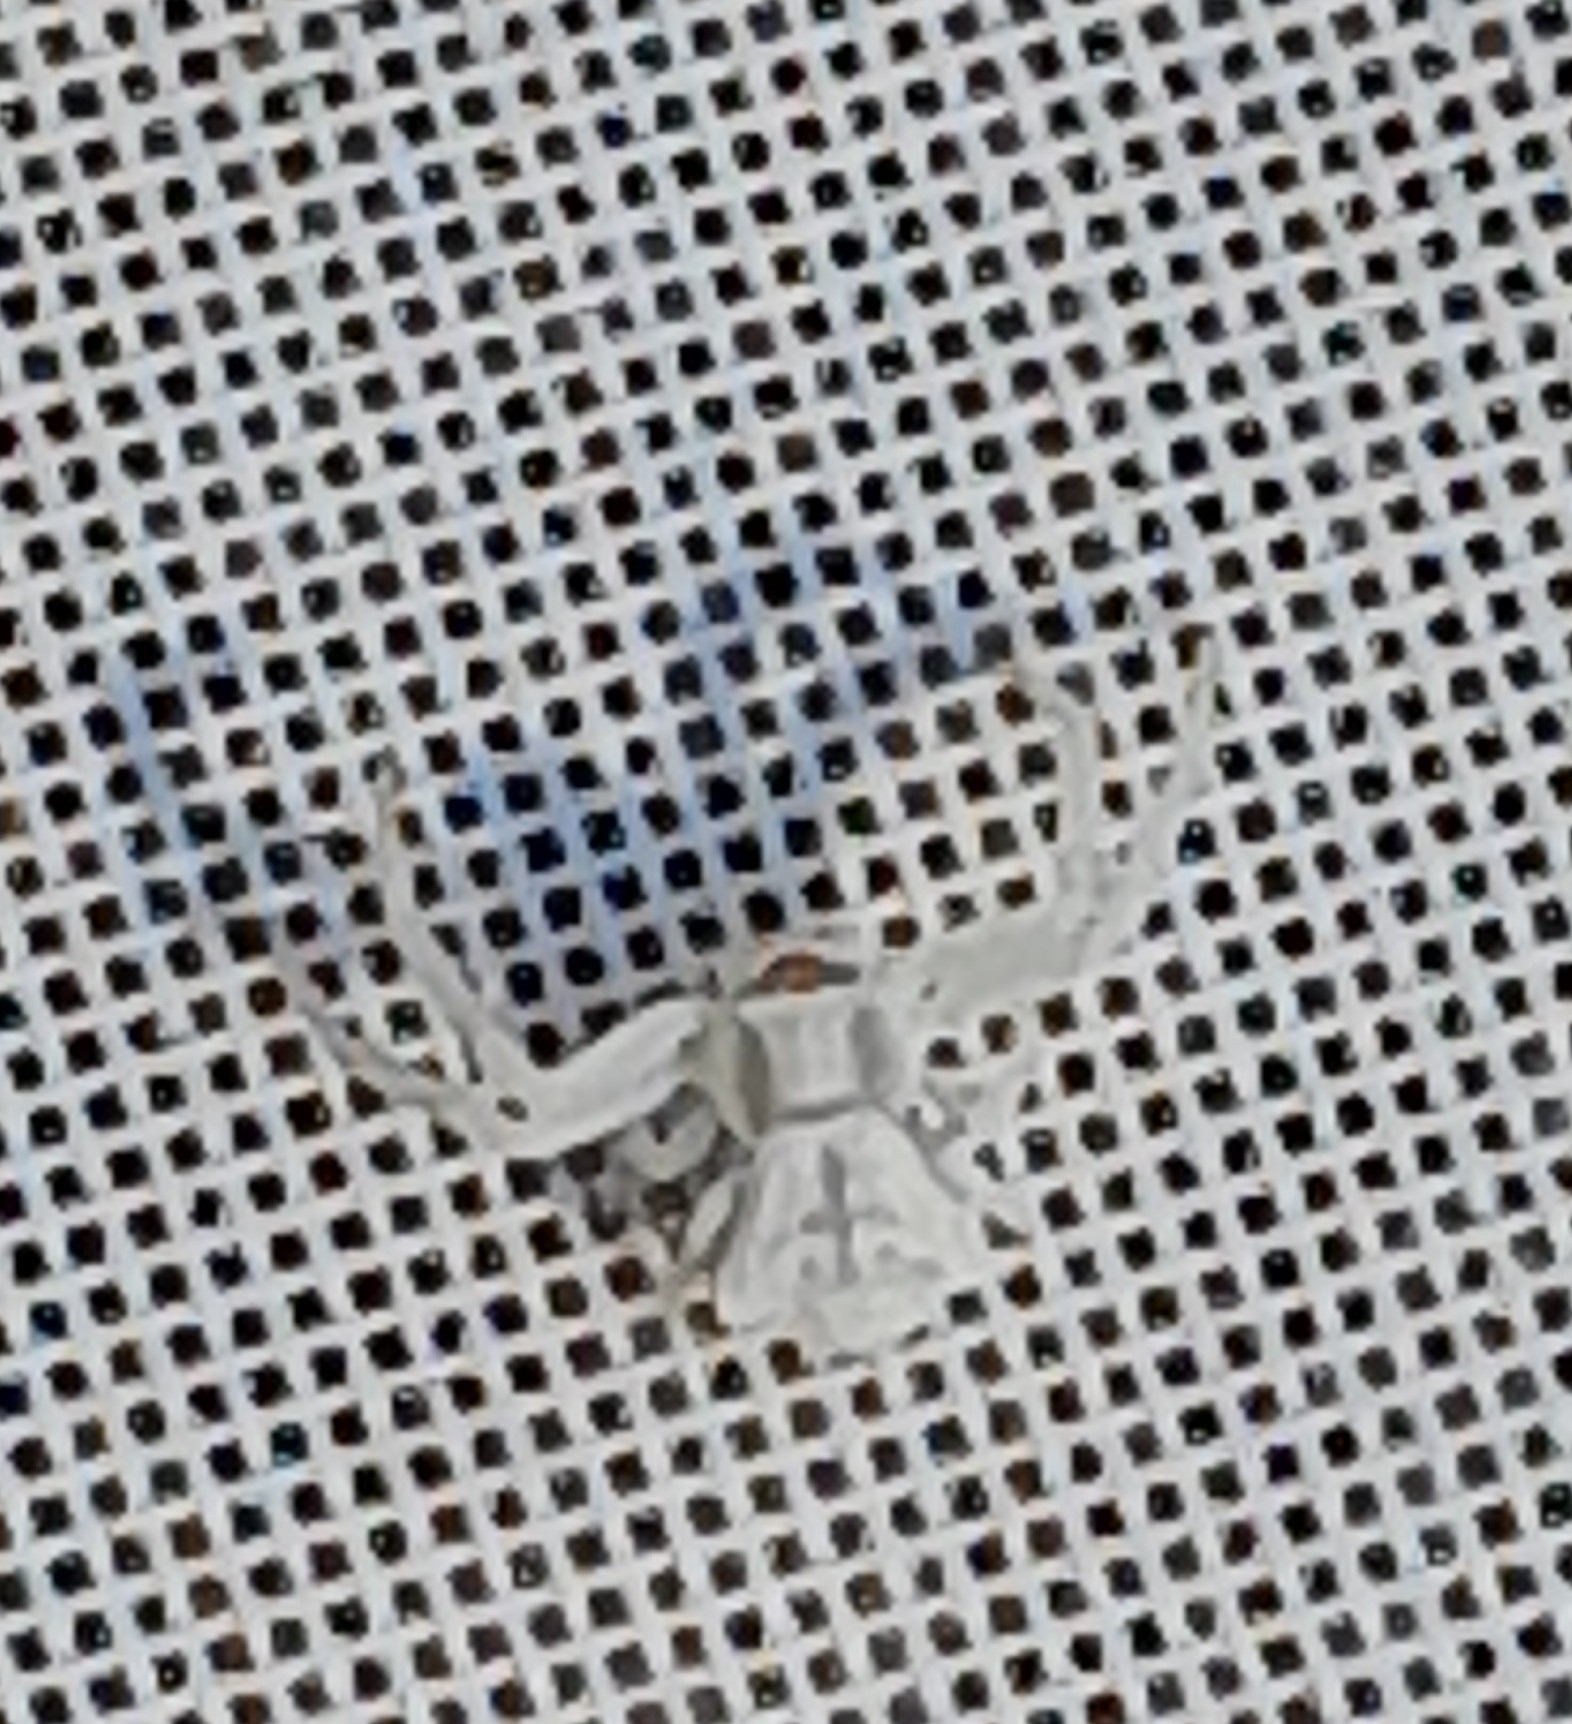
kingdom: Animalia
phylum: Arthropoda
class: Arachnida
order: Araneae
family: Thomisidae
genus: Thomisus
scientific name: Thomisus onustus
